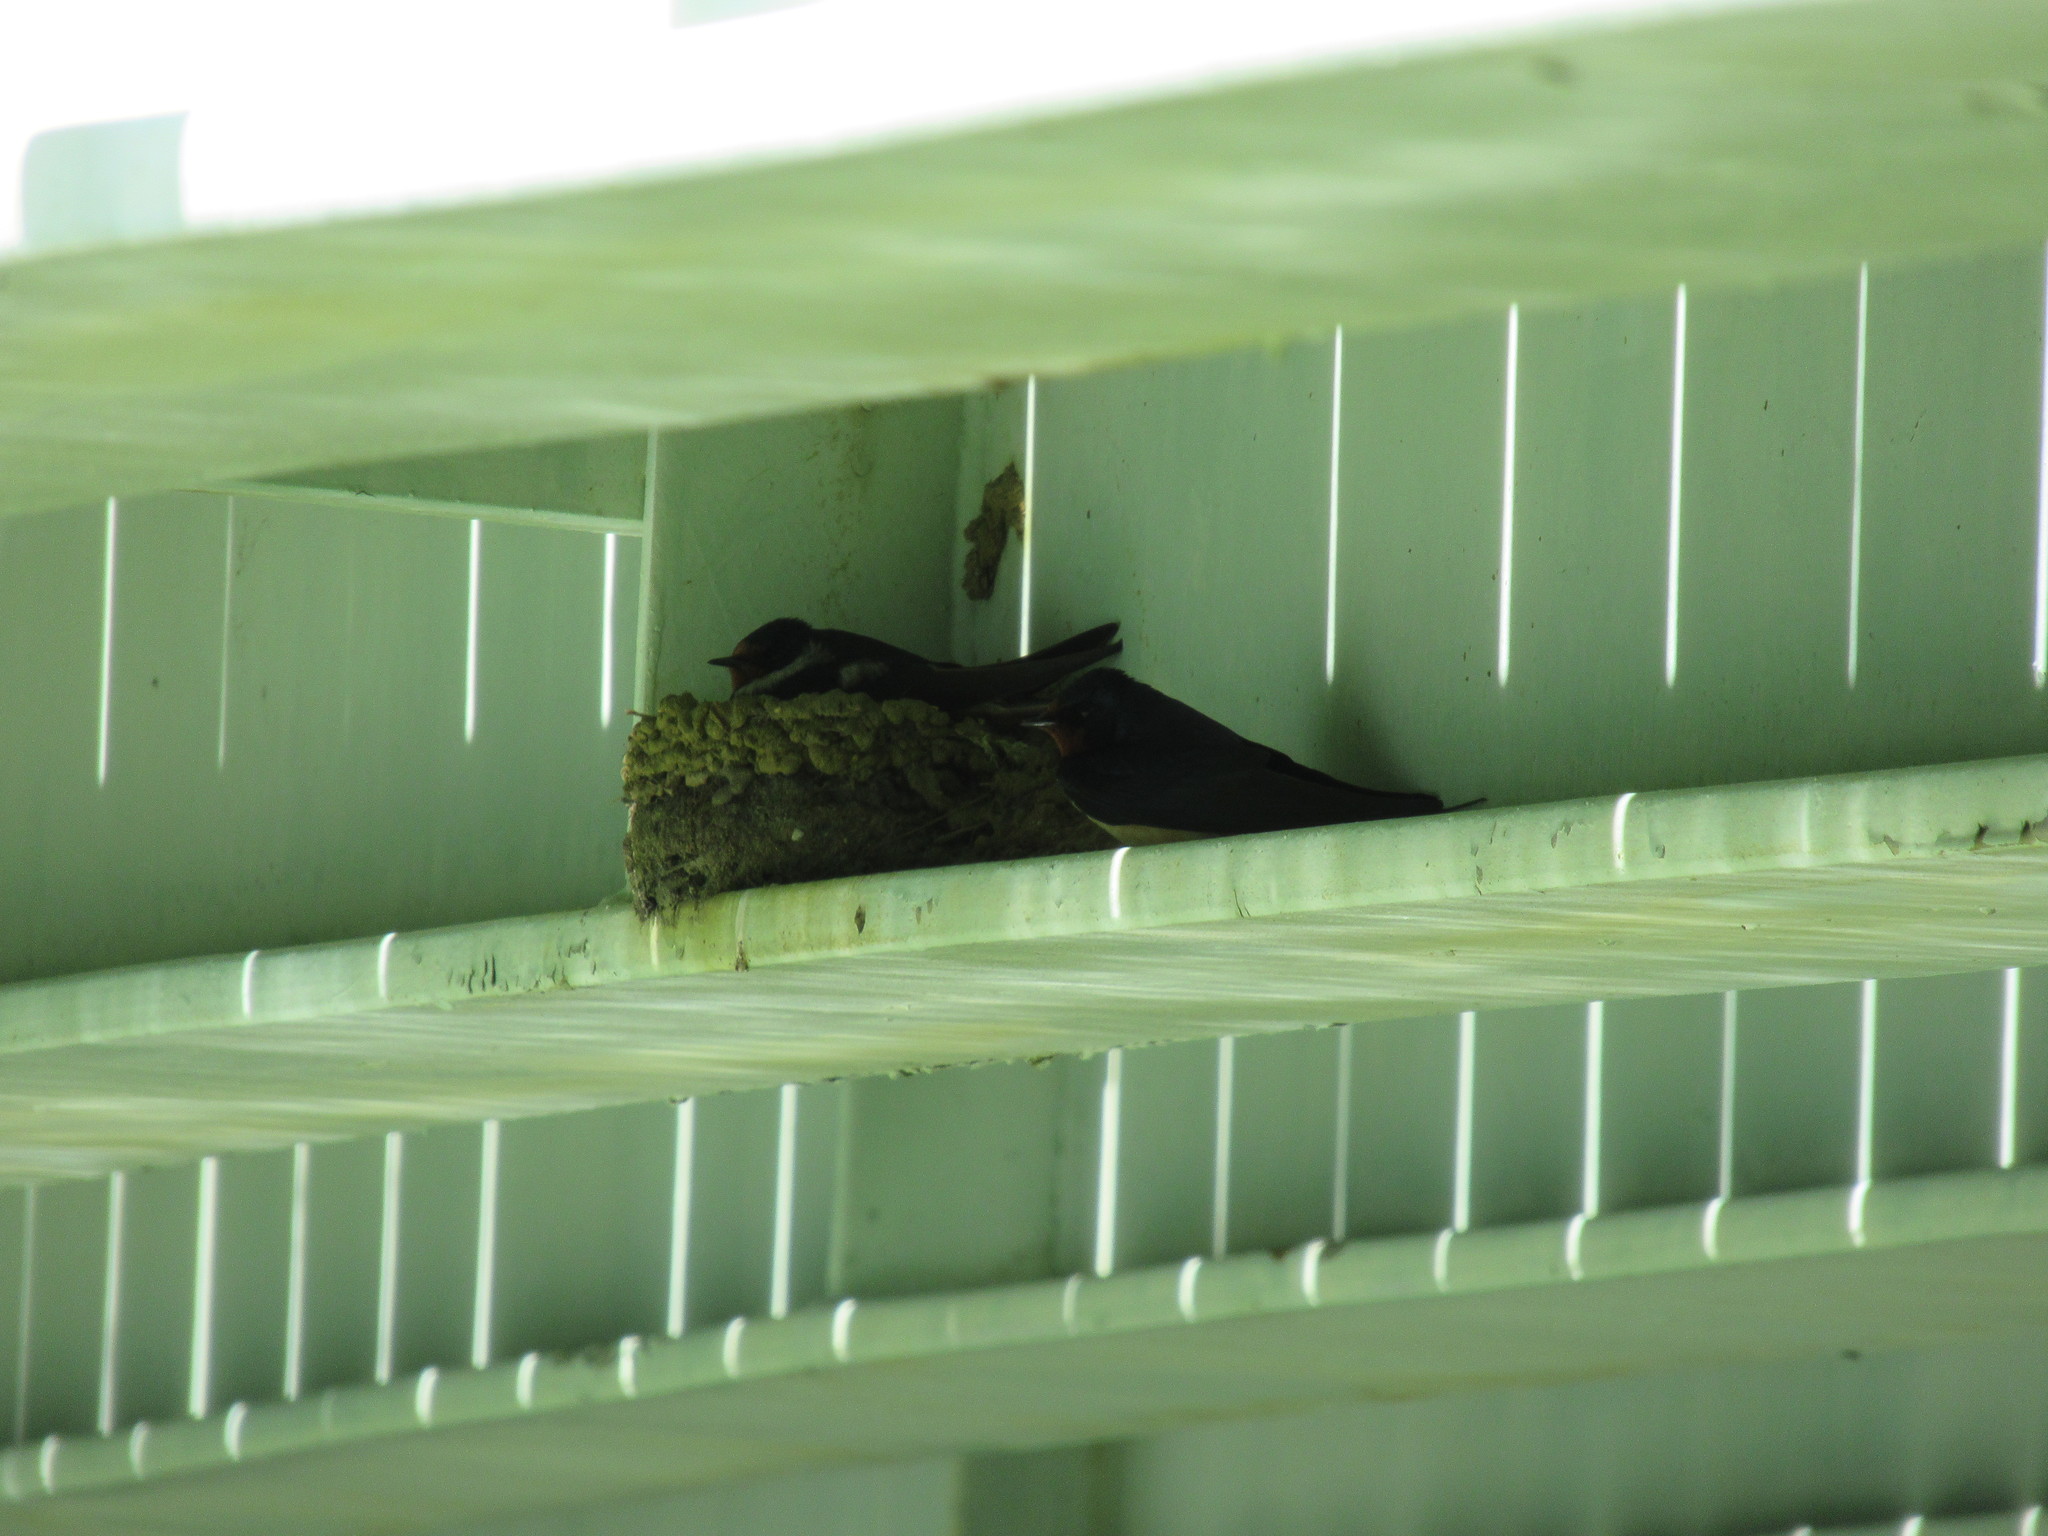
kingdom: Animalia
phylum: Chordata
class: Aves
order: Passeriformes
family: Hirundinidae
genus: Hirundo
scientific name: Hirundo rustica
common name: Barn swallow
